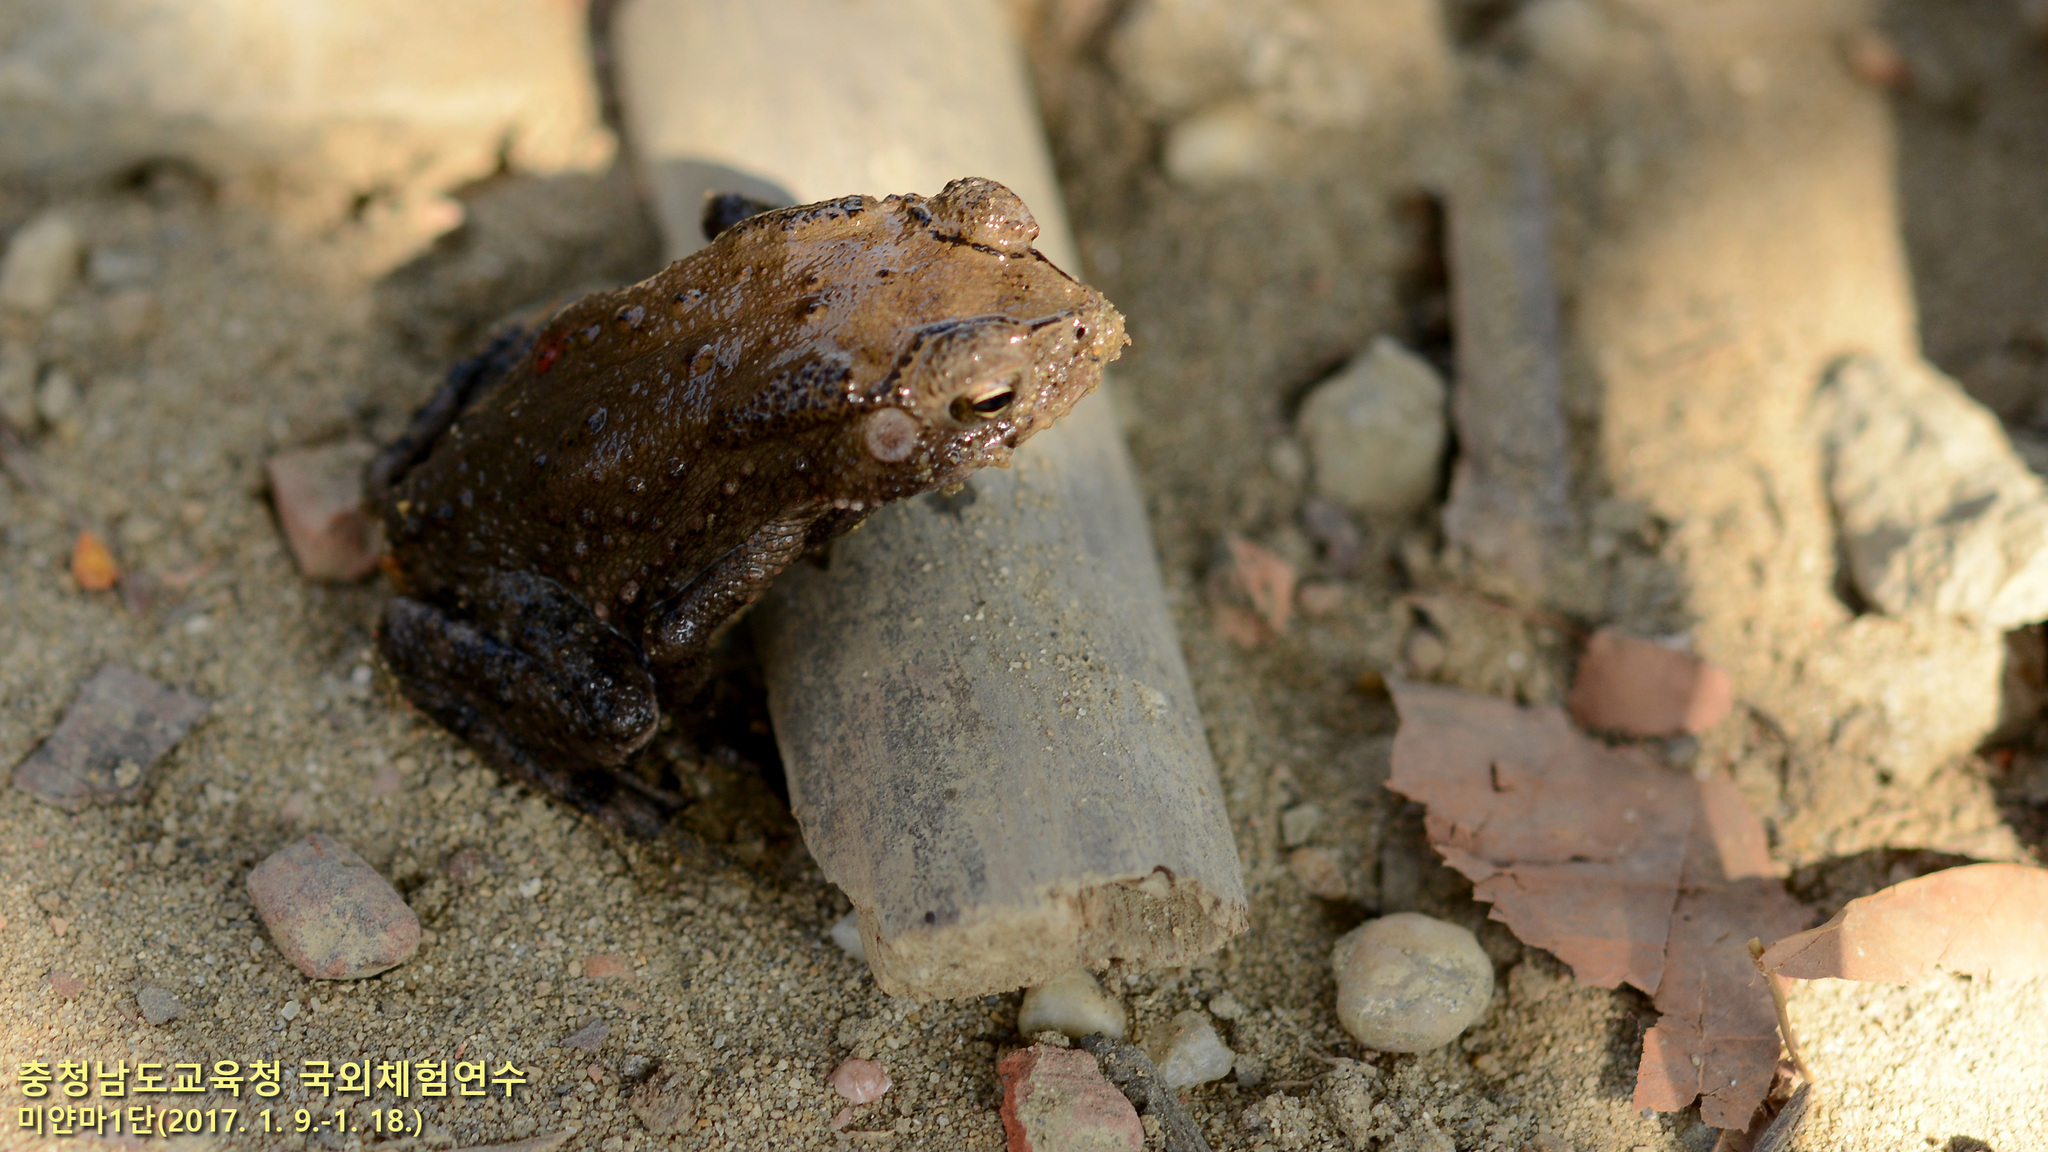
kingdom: Animalia
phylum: Chordata
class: Amphibia
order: Anura
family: Bufonidae
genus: Duttaphrynus
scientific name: Duttaphrynus melanostictus
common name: Common sunda toad
